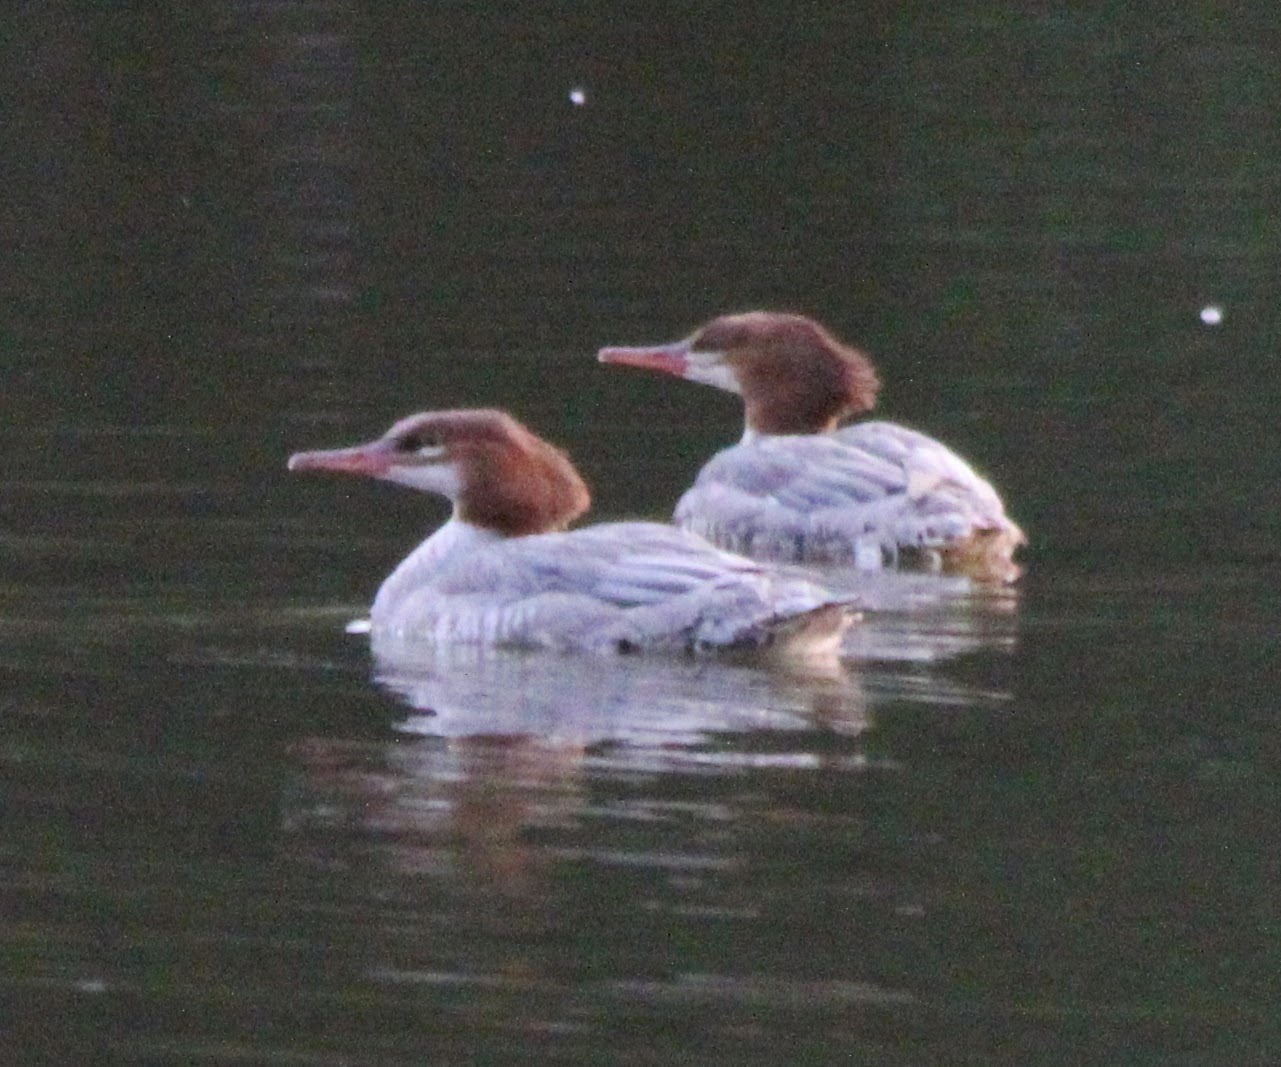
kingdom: Animalia
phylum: Chordata
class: Aves
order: Anseriformes
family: Anatidae
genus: Mergus
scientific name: Mergus merganser
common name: Common merganser
